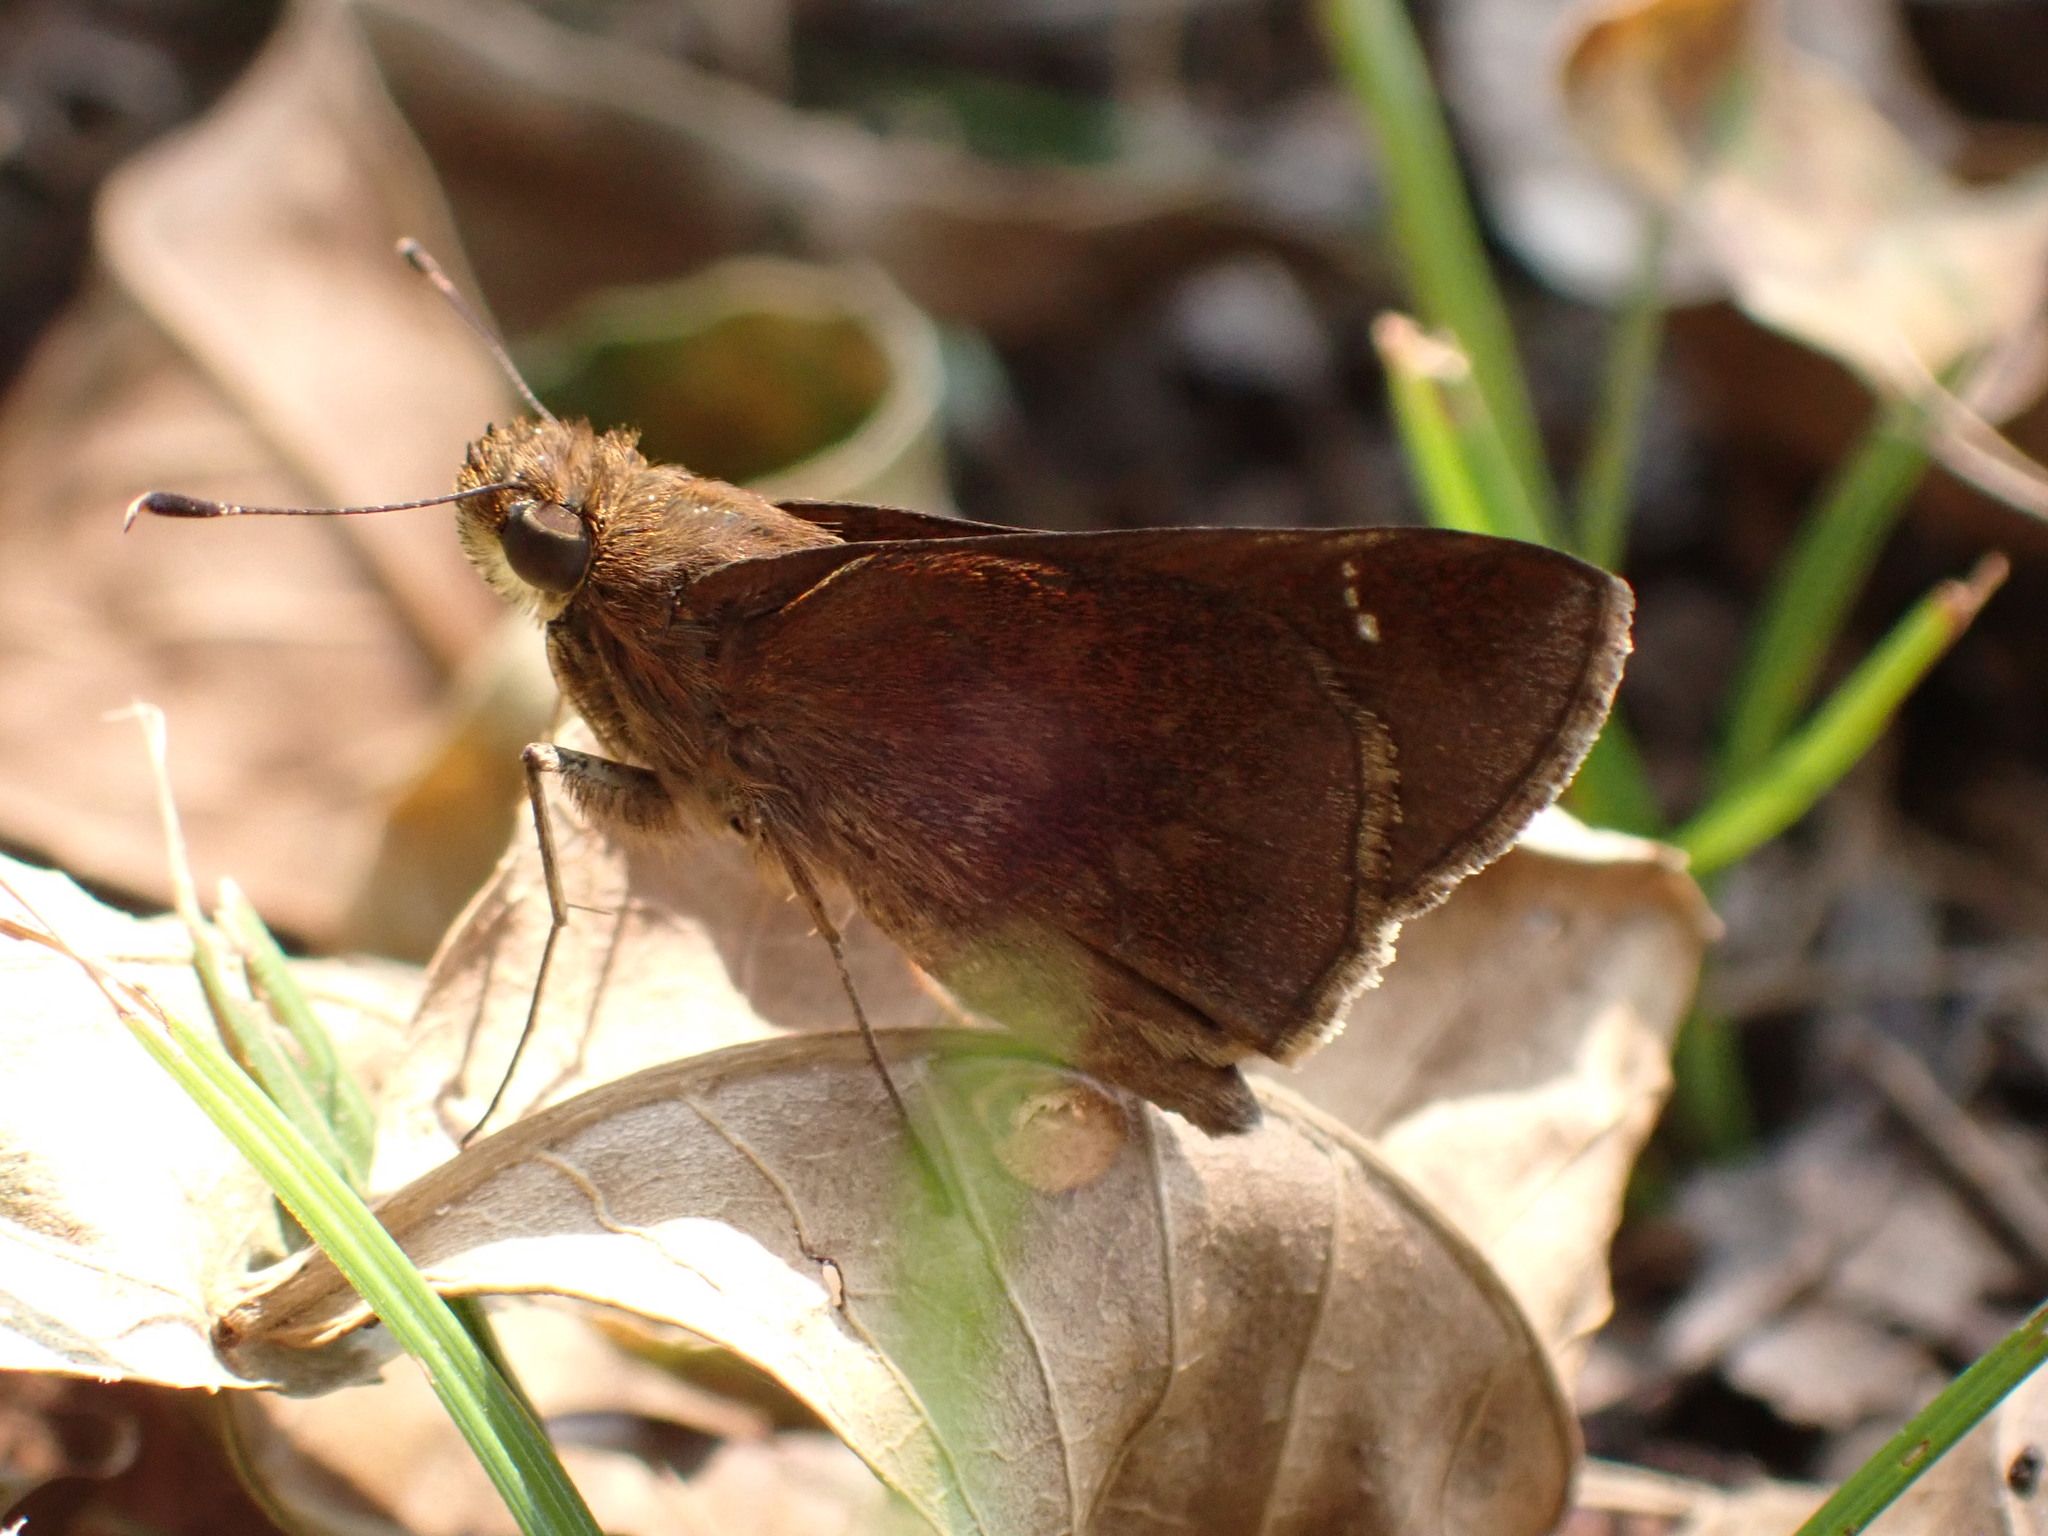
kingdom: Animalia
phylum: Arthropoda
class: Insecta
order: Lepidoptera
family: Hesperiidae
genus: Lerema
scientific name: Lerema accius
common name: Clouded skipper
